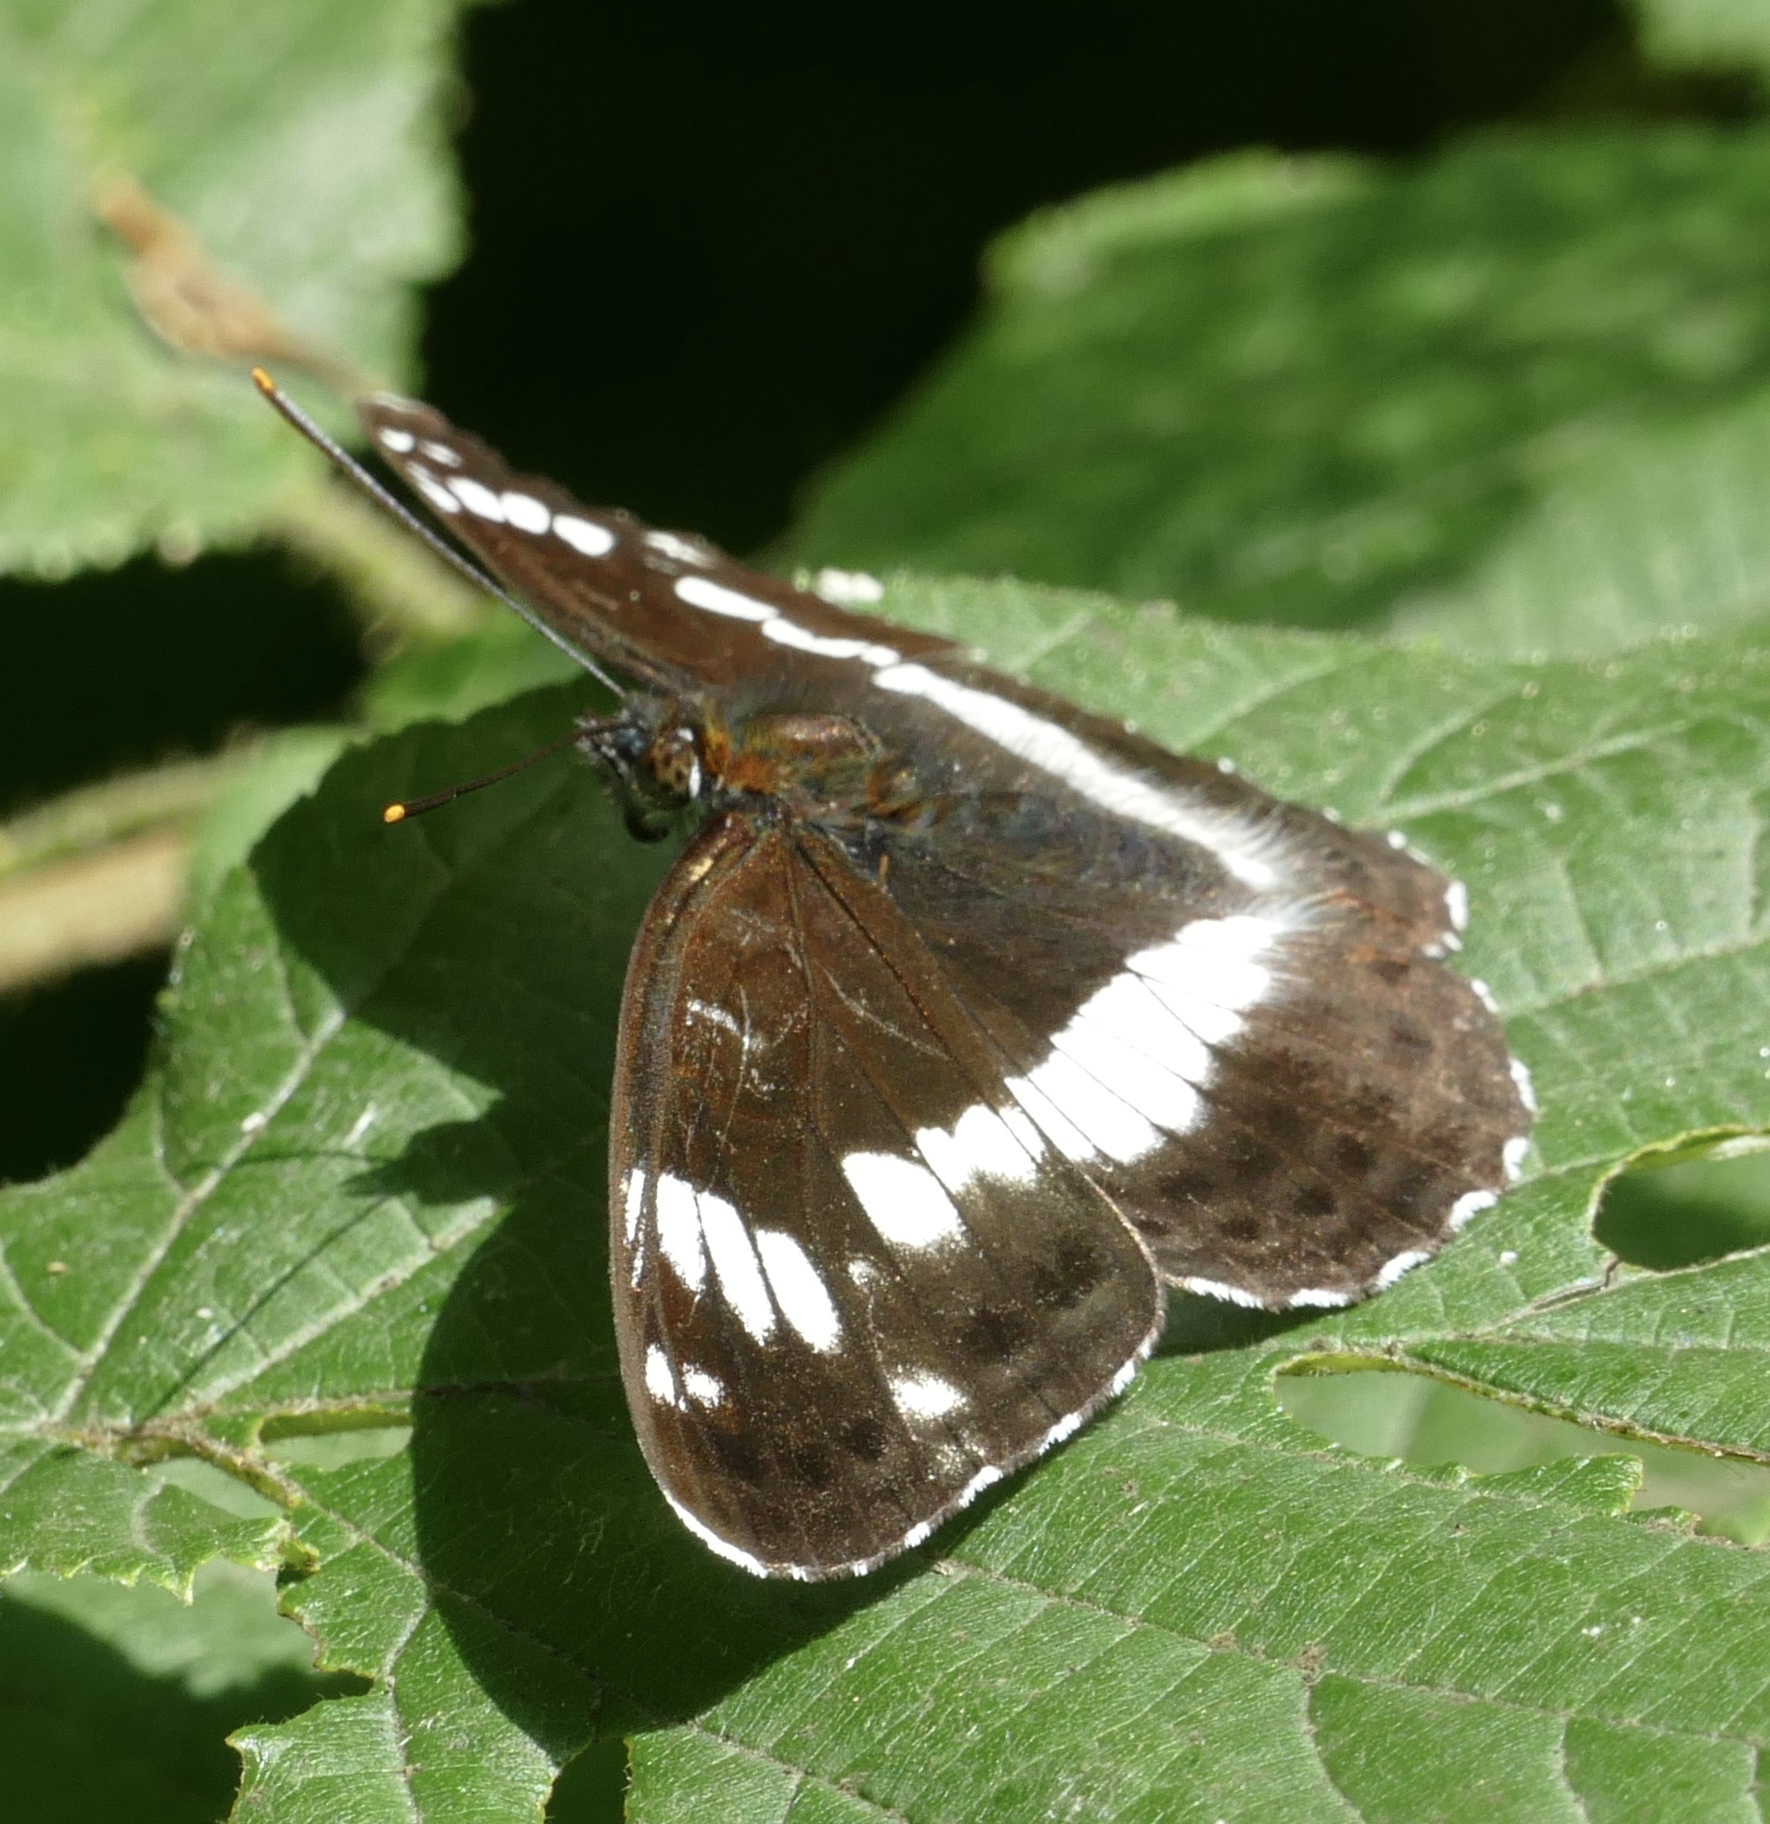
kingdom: Animalia
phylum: Arthropoda
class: Insecta
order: Lepidoptera
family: Nymphalidae
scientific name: Nymphalidae
